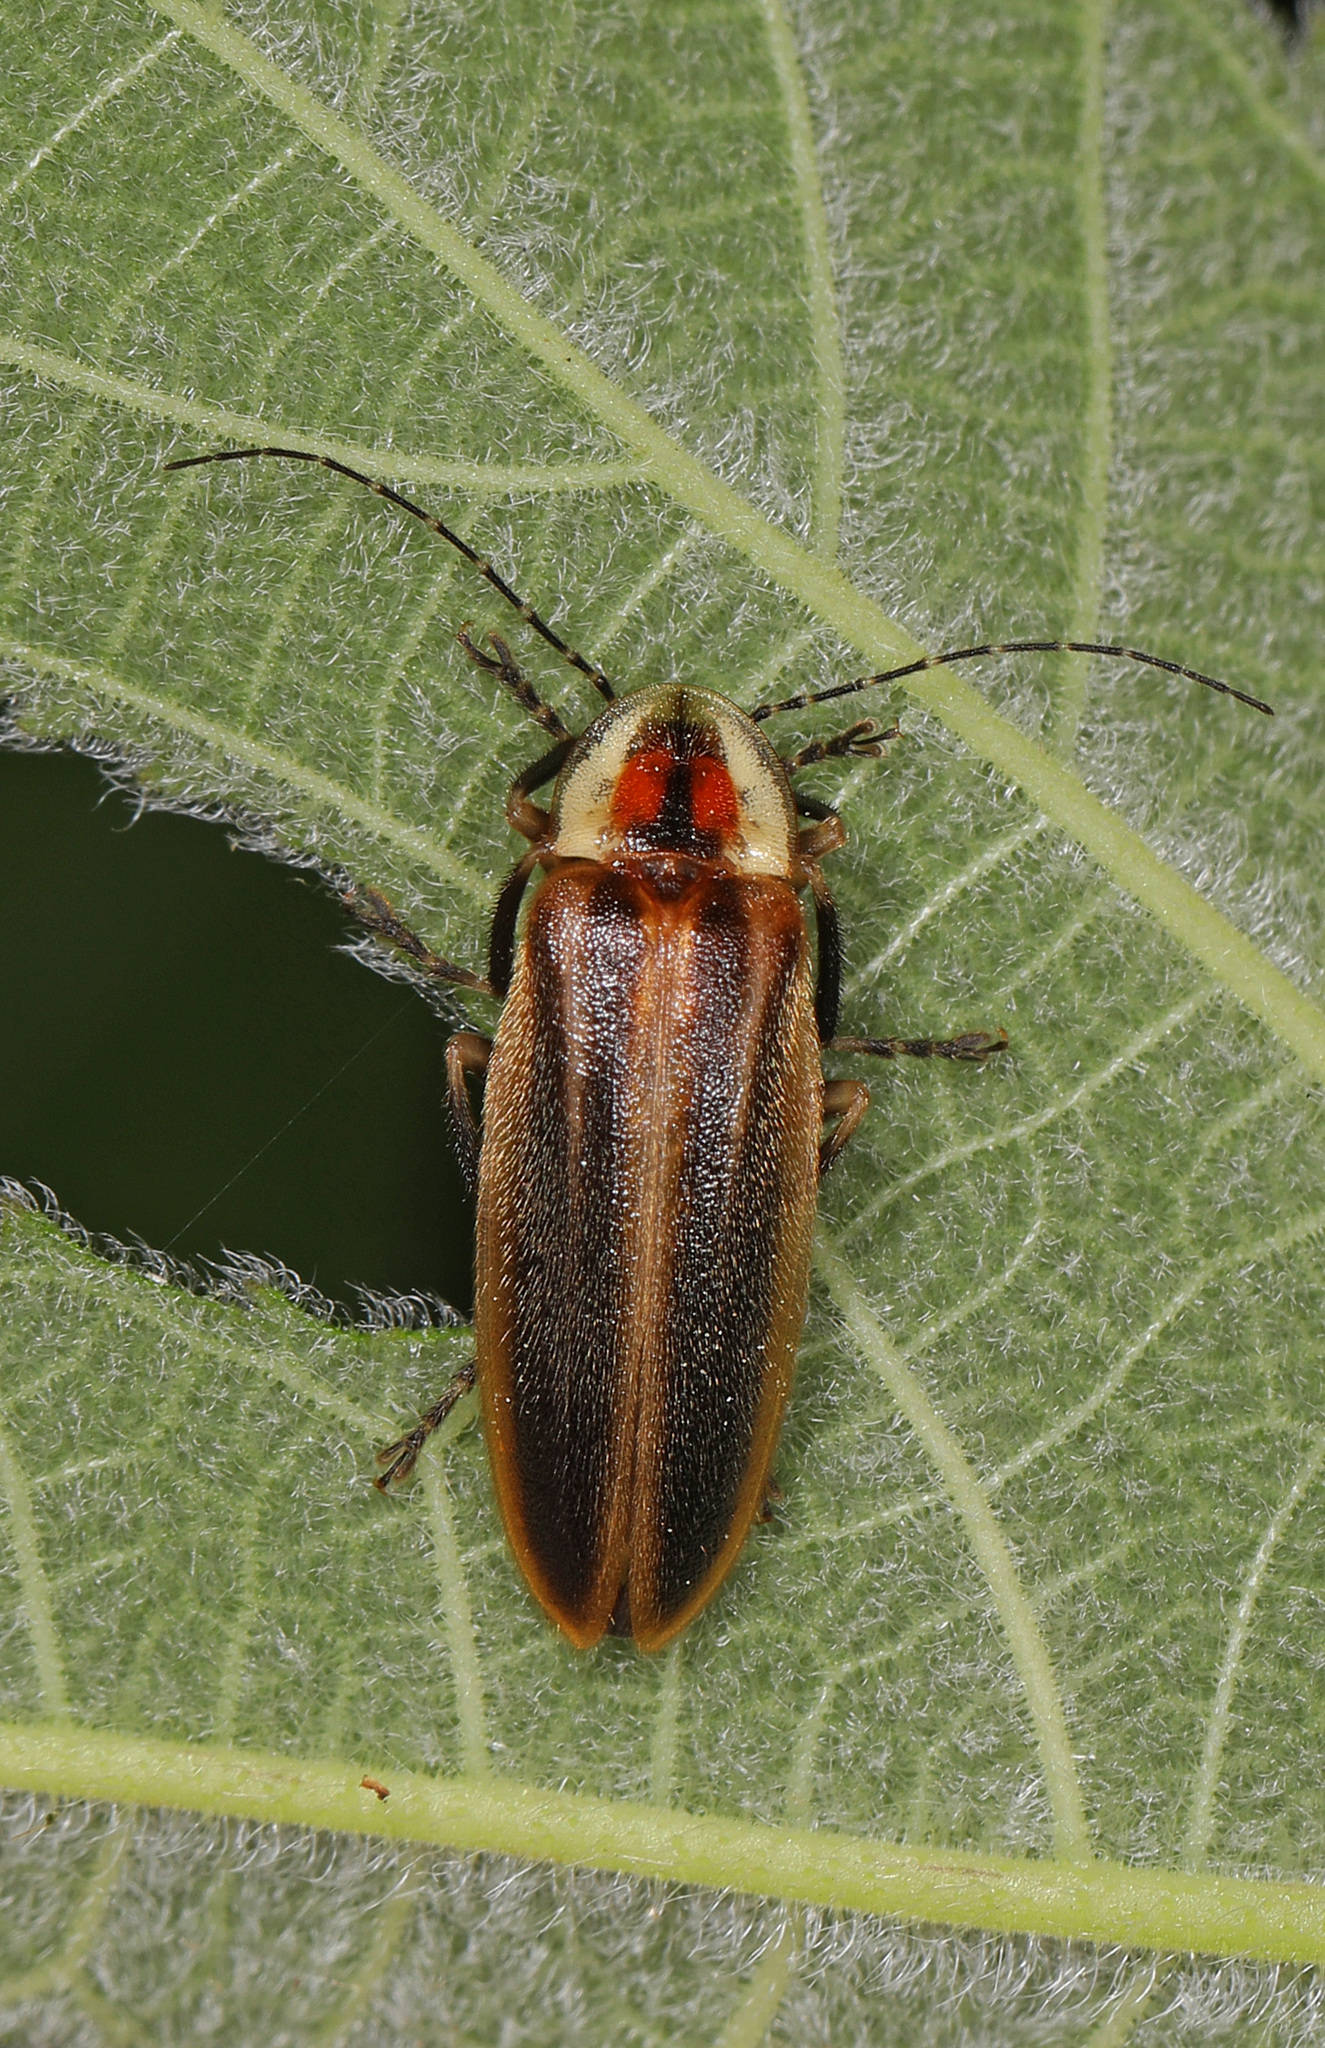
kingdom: Animalia
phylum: Arthropoda
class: Insecta
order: Coleoptera
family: Lampyridae
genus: Photuris
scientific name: Photuris
